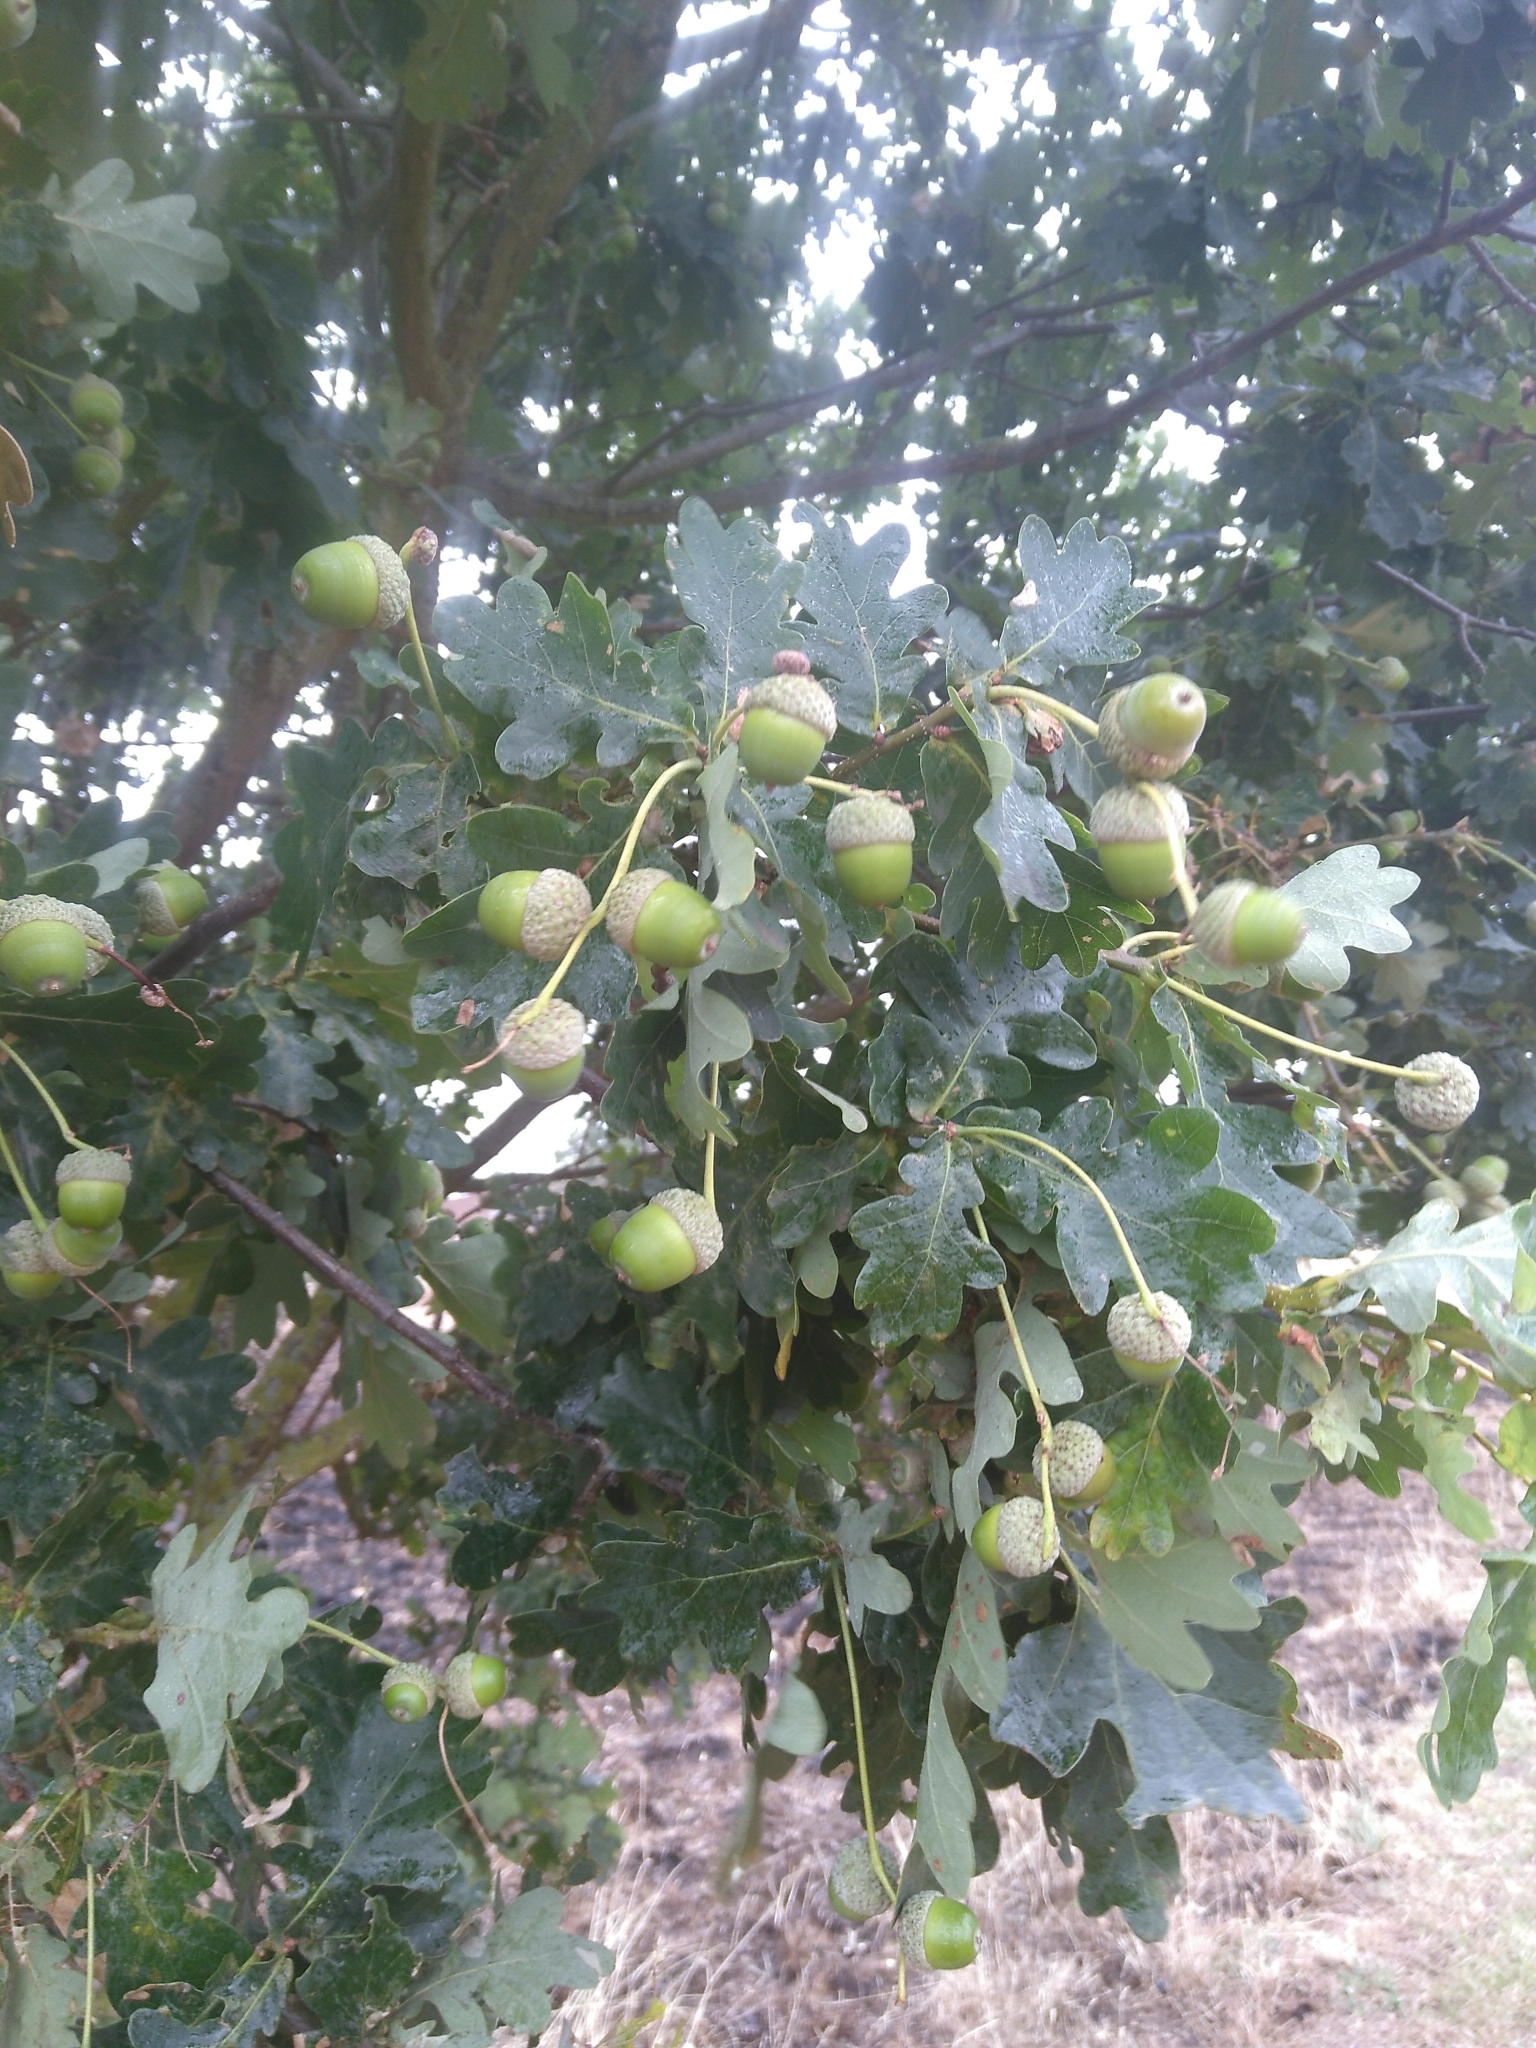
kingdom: Plantae
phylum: Tracheophyta
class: Magnoliopsida
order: Fagales
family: Fagaceae
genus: Quercus
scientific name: Quercus robur
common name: Pedunculate oak
